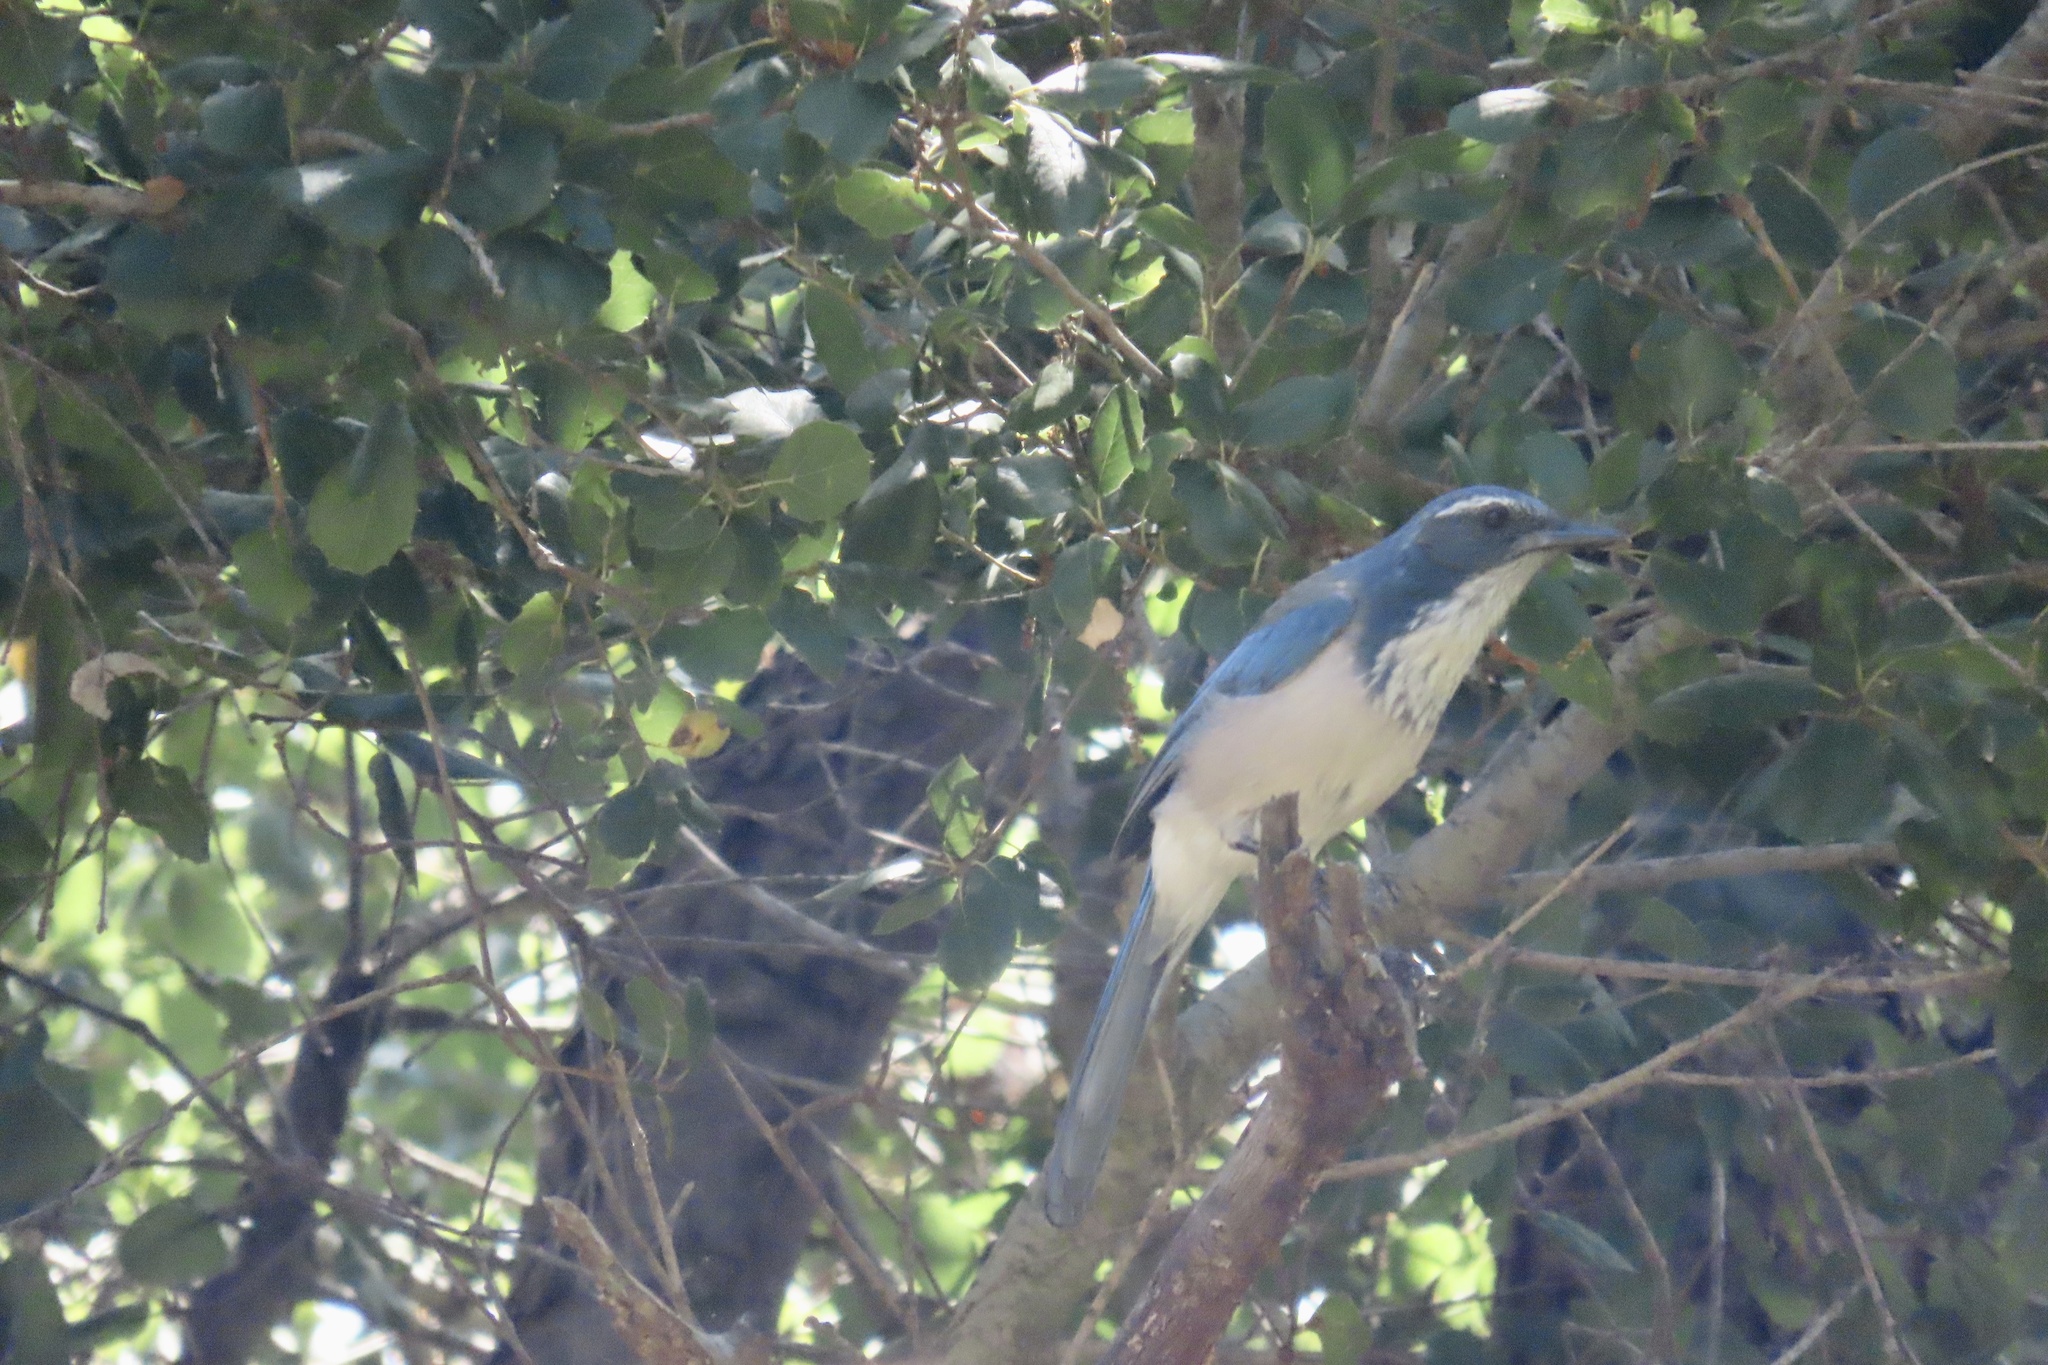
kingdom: Animalia
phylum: Chordata
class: Aves
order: Passeriformes
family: Corvidae
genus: Aphelocoma
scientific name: Aphelocoma californica
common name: California scrub-jay
